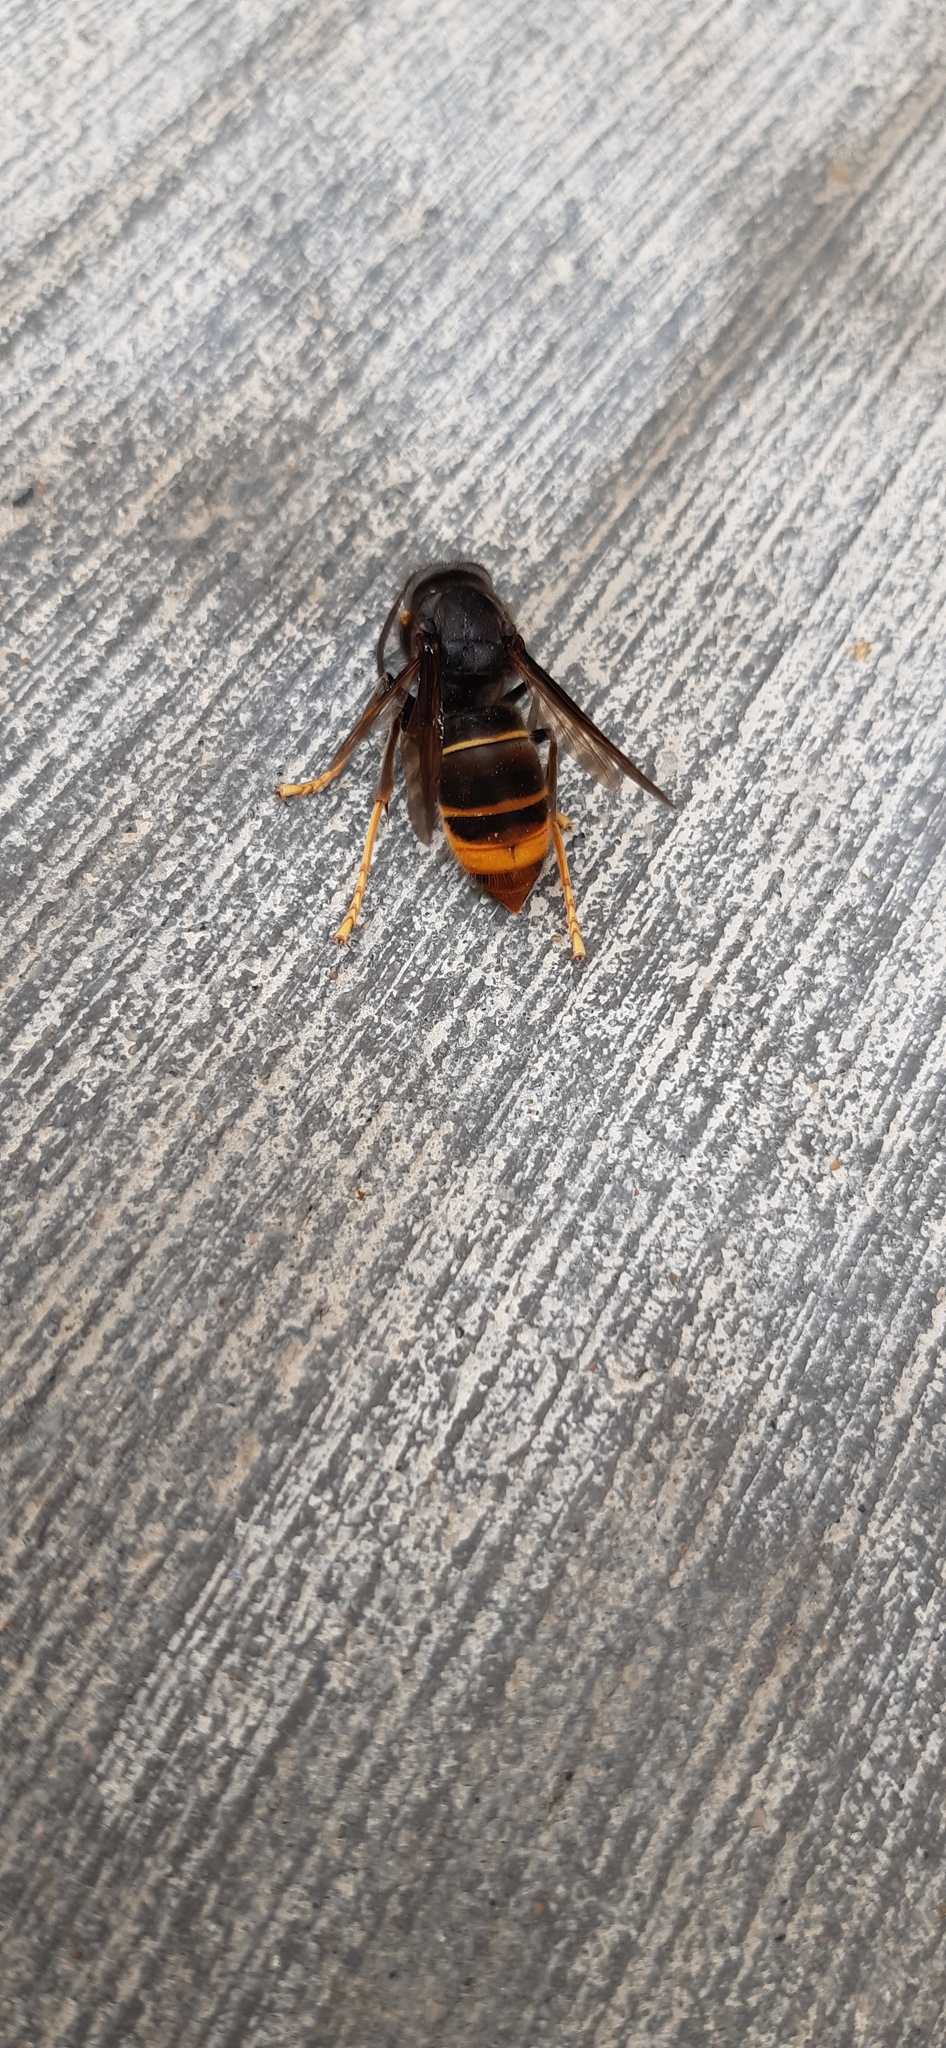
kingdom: Animalia
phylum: Arthropoda
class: Insecta
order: Hymenoptera
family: Vespidae
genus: Vespa
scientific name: Vespa velutina
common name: Asian hornet
